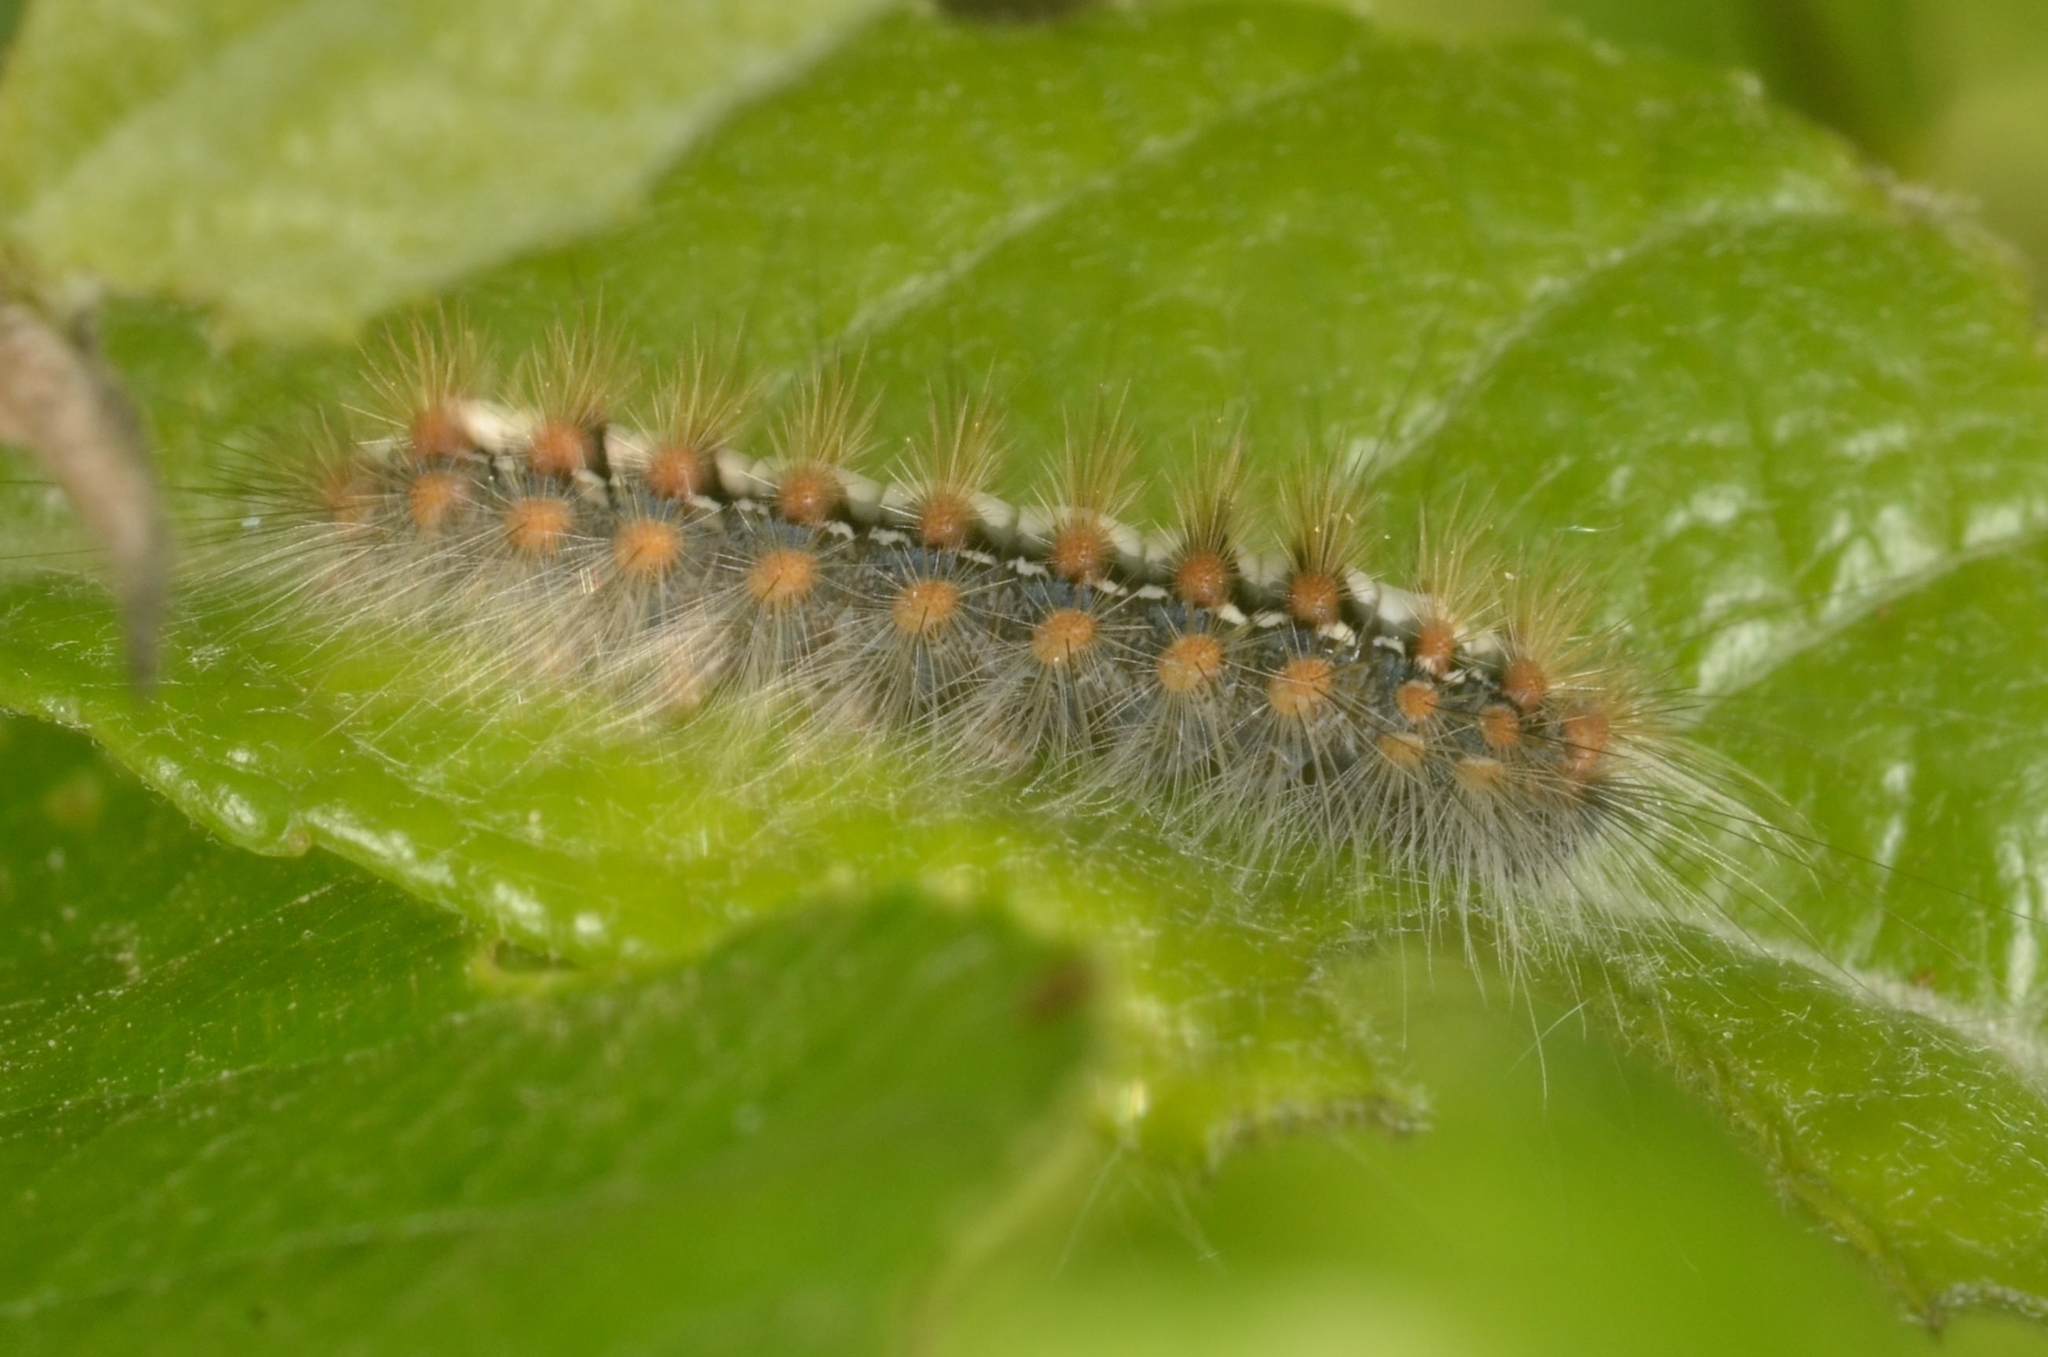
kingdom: Animalia
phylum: Arthropoda
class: Insecta
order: Lepidoptera
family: Erebidae
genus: Leucoma
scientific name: Leucoma salicis
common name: White satin moth
